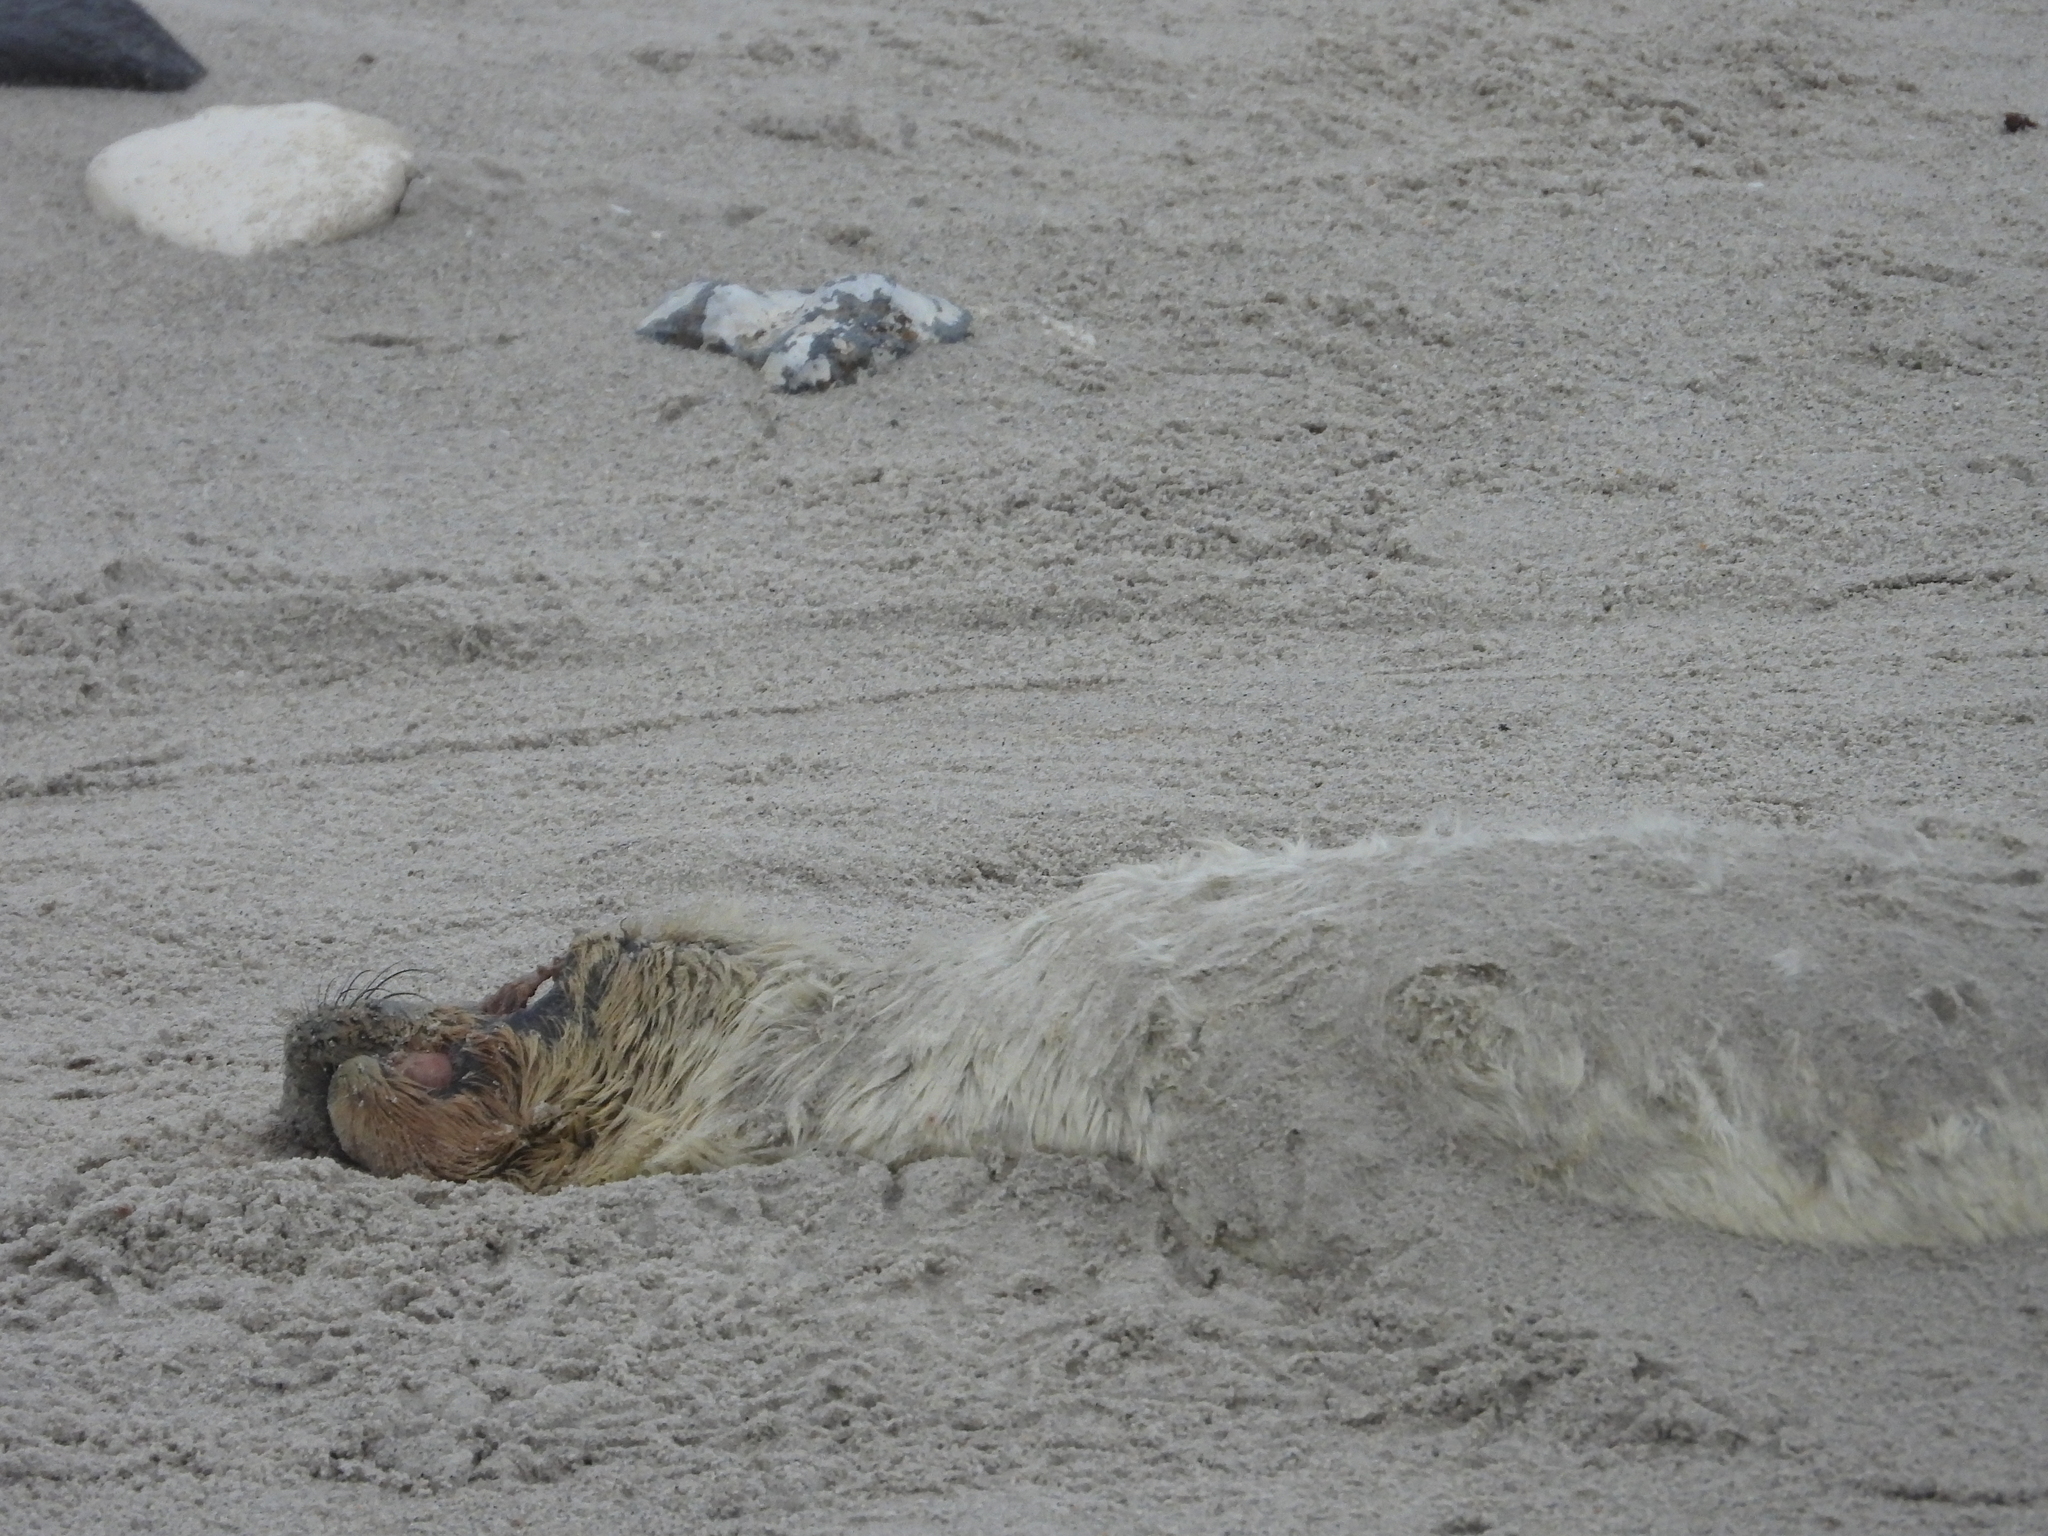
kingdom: Animalia
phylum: Chordata
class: Mammalia
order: Carnivora
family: Phocidae
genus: Halichoerus
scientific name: Halichoerus grypus
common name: Grey seal
